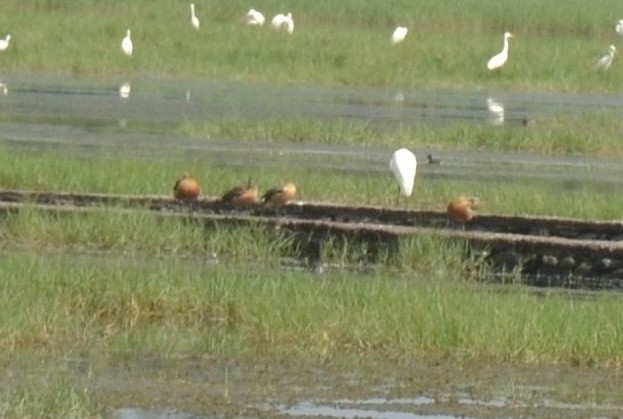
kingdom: Animalia
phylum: Chordata
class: Aves
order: Anseriformes
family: Anatidae
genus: Dendrocygna
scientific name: Dendrocygna javanica
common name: Lesser whistling-duck
